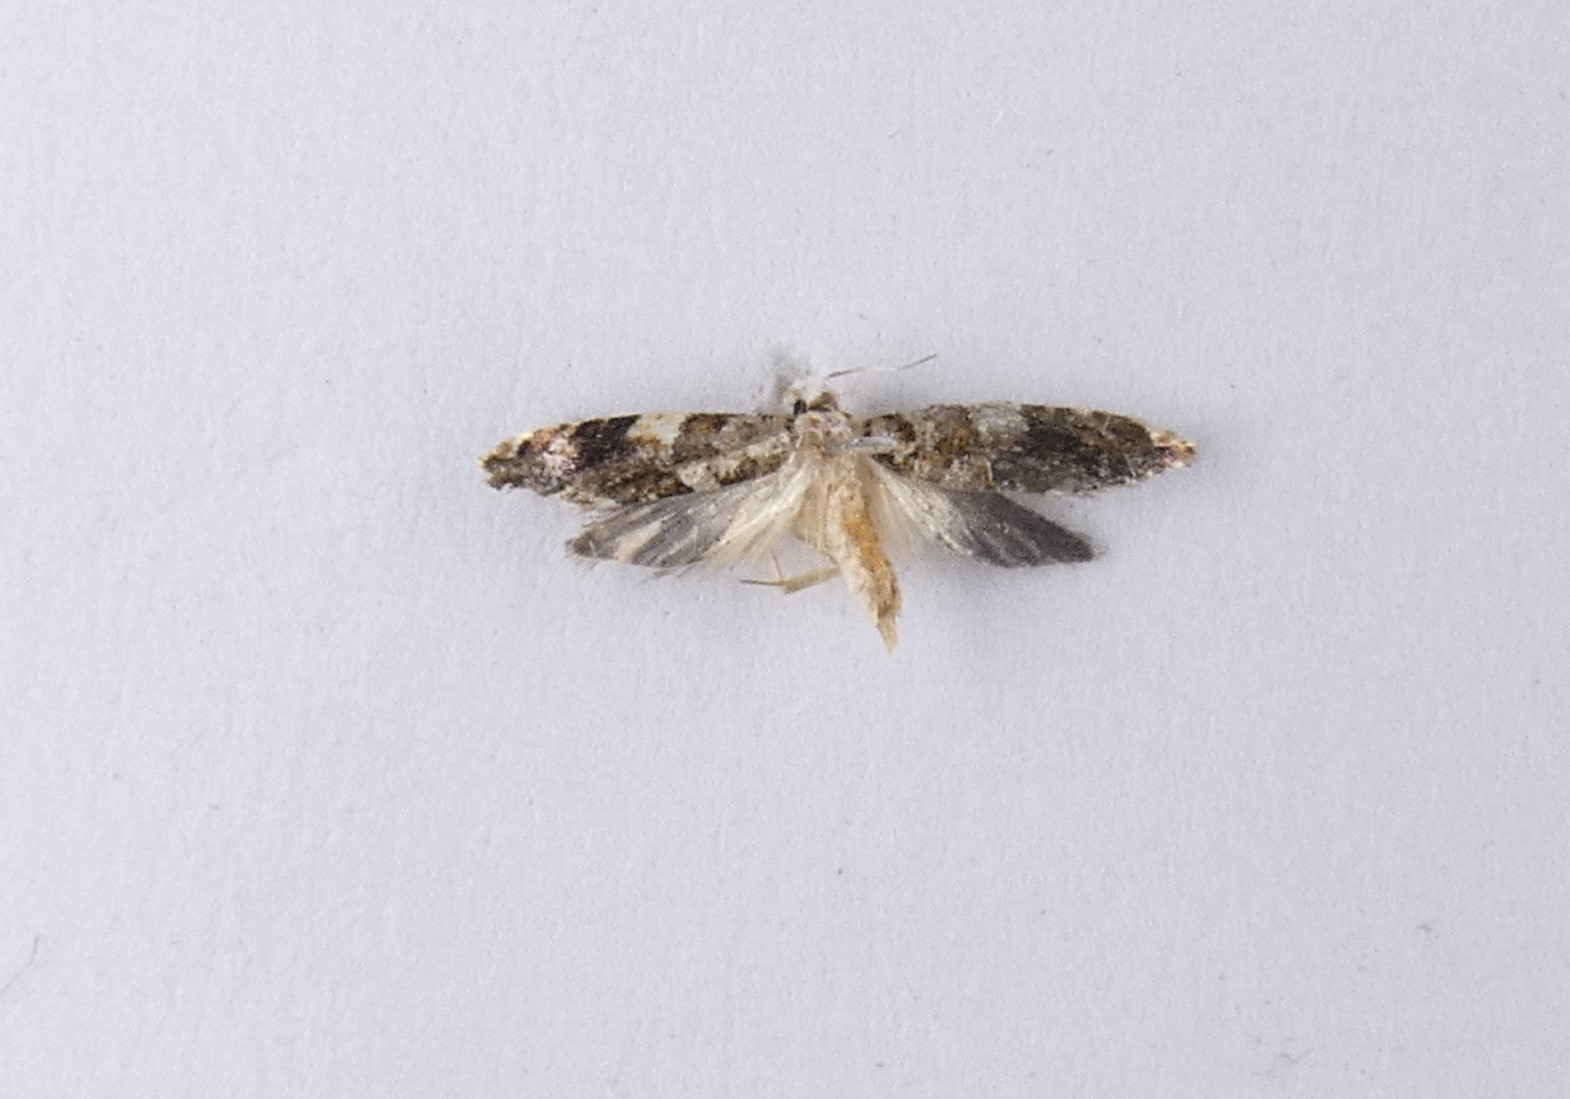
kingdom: Animalia
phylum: Arthropoda
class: Insecta
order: Lepidoptera
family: Tineidae
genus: Eschatotypa
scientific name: Eschatotypa derogatella
